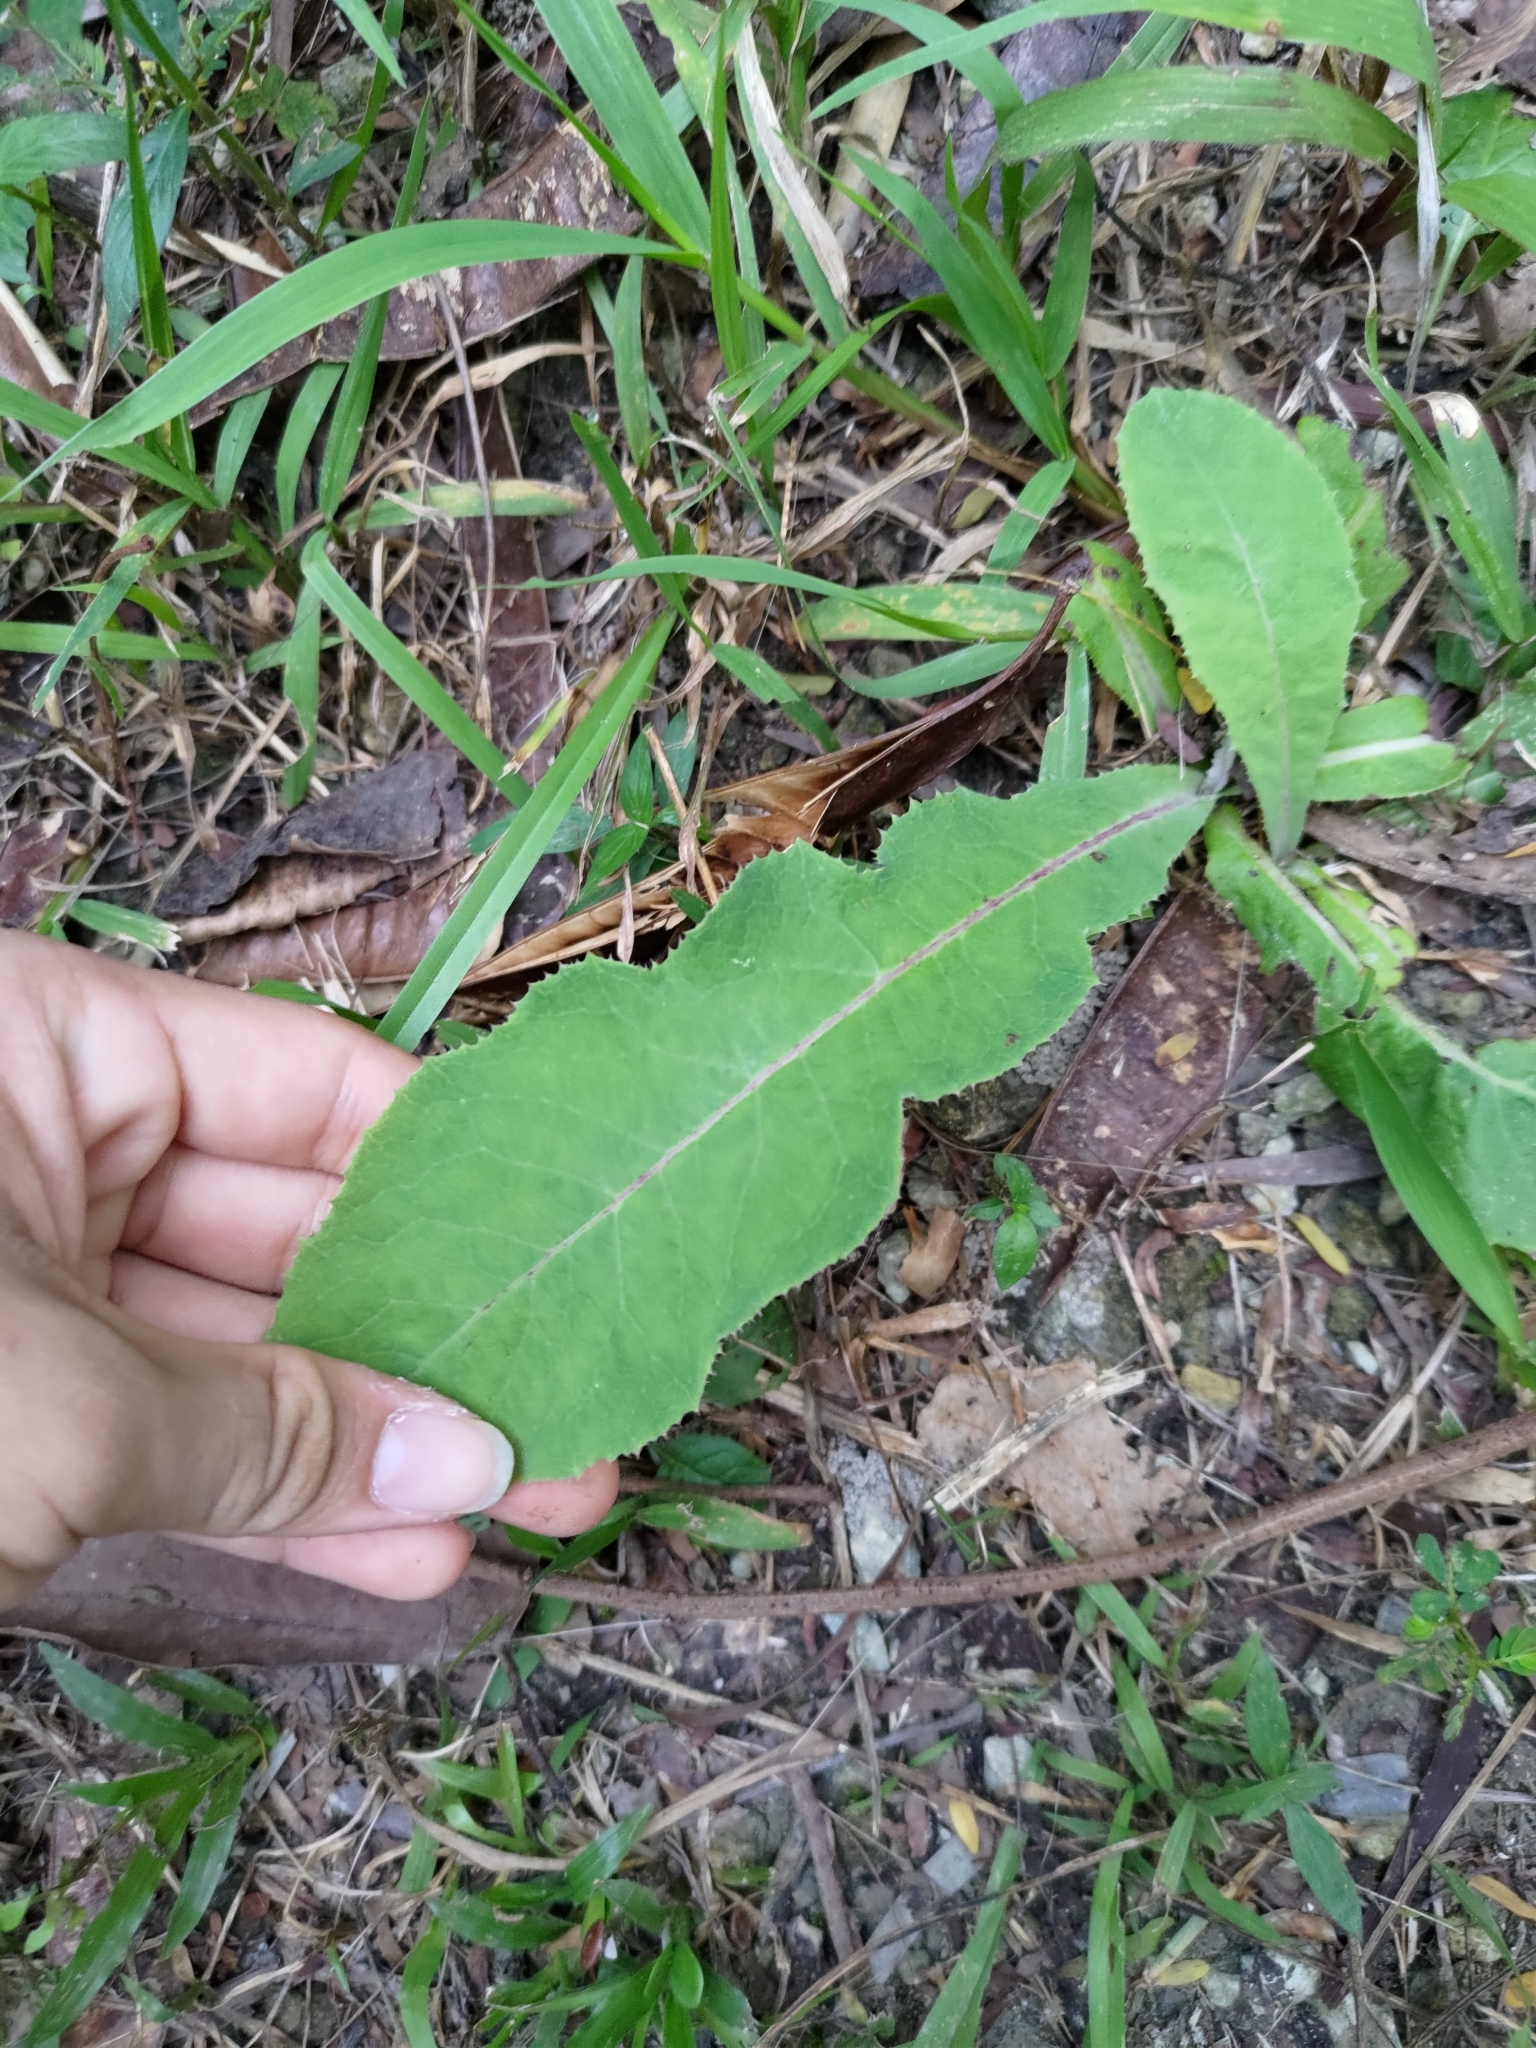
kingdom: Plantae
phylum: Tracheophyta
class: Magnoliopsida
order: Asterales
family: Asteraceae
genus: Sonchus
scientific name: Sonchus arvensis
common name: Perennial sow-thistle
